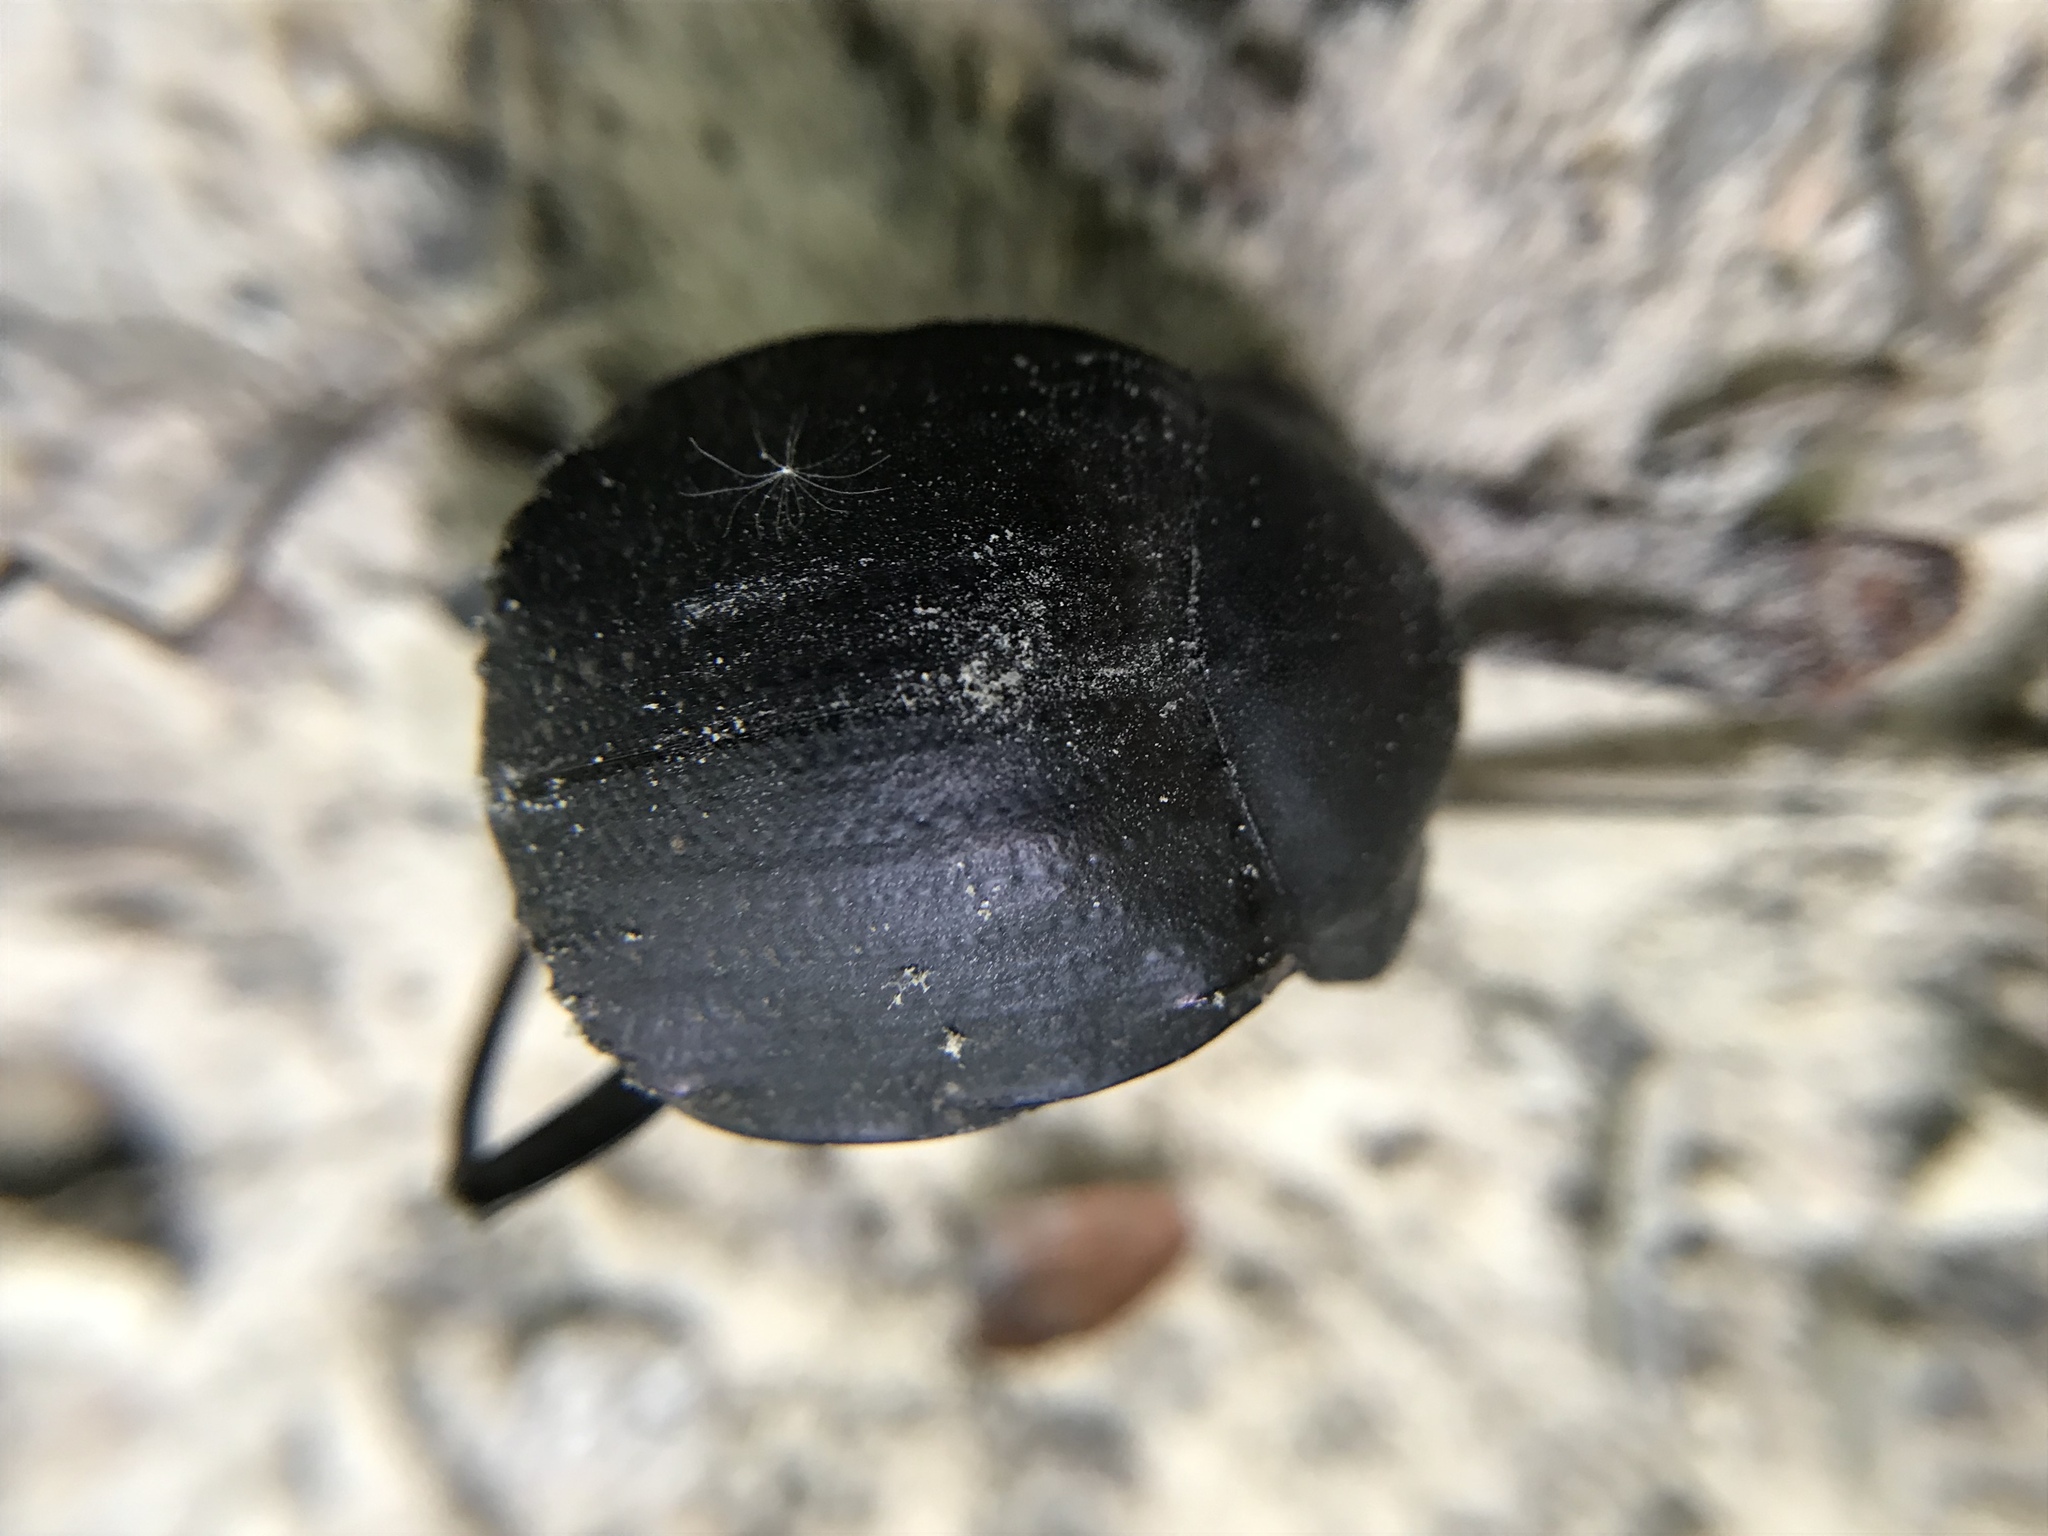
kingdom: Animalia
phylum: Arthropoda
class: Insecta
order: Coleoptera
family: Scarabaeidae
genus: Deltochilum
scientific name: Deltochilum gibbosum
